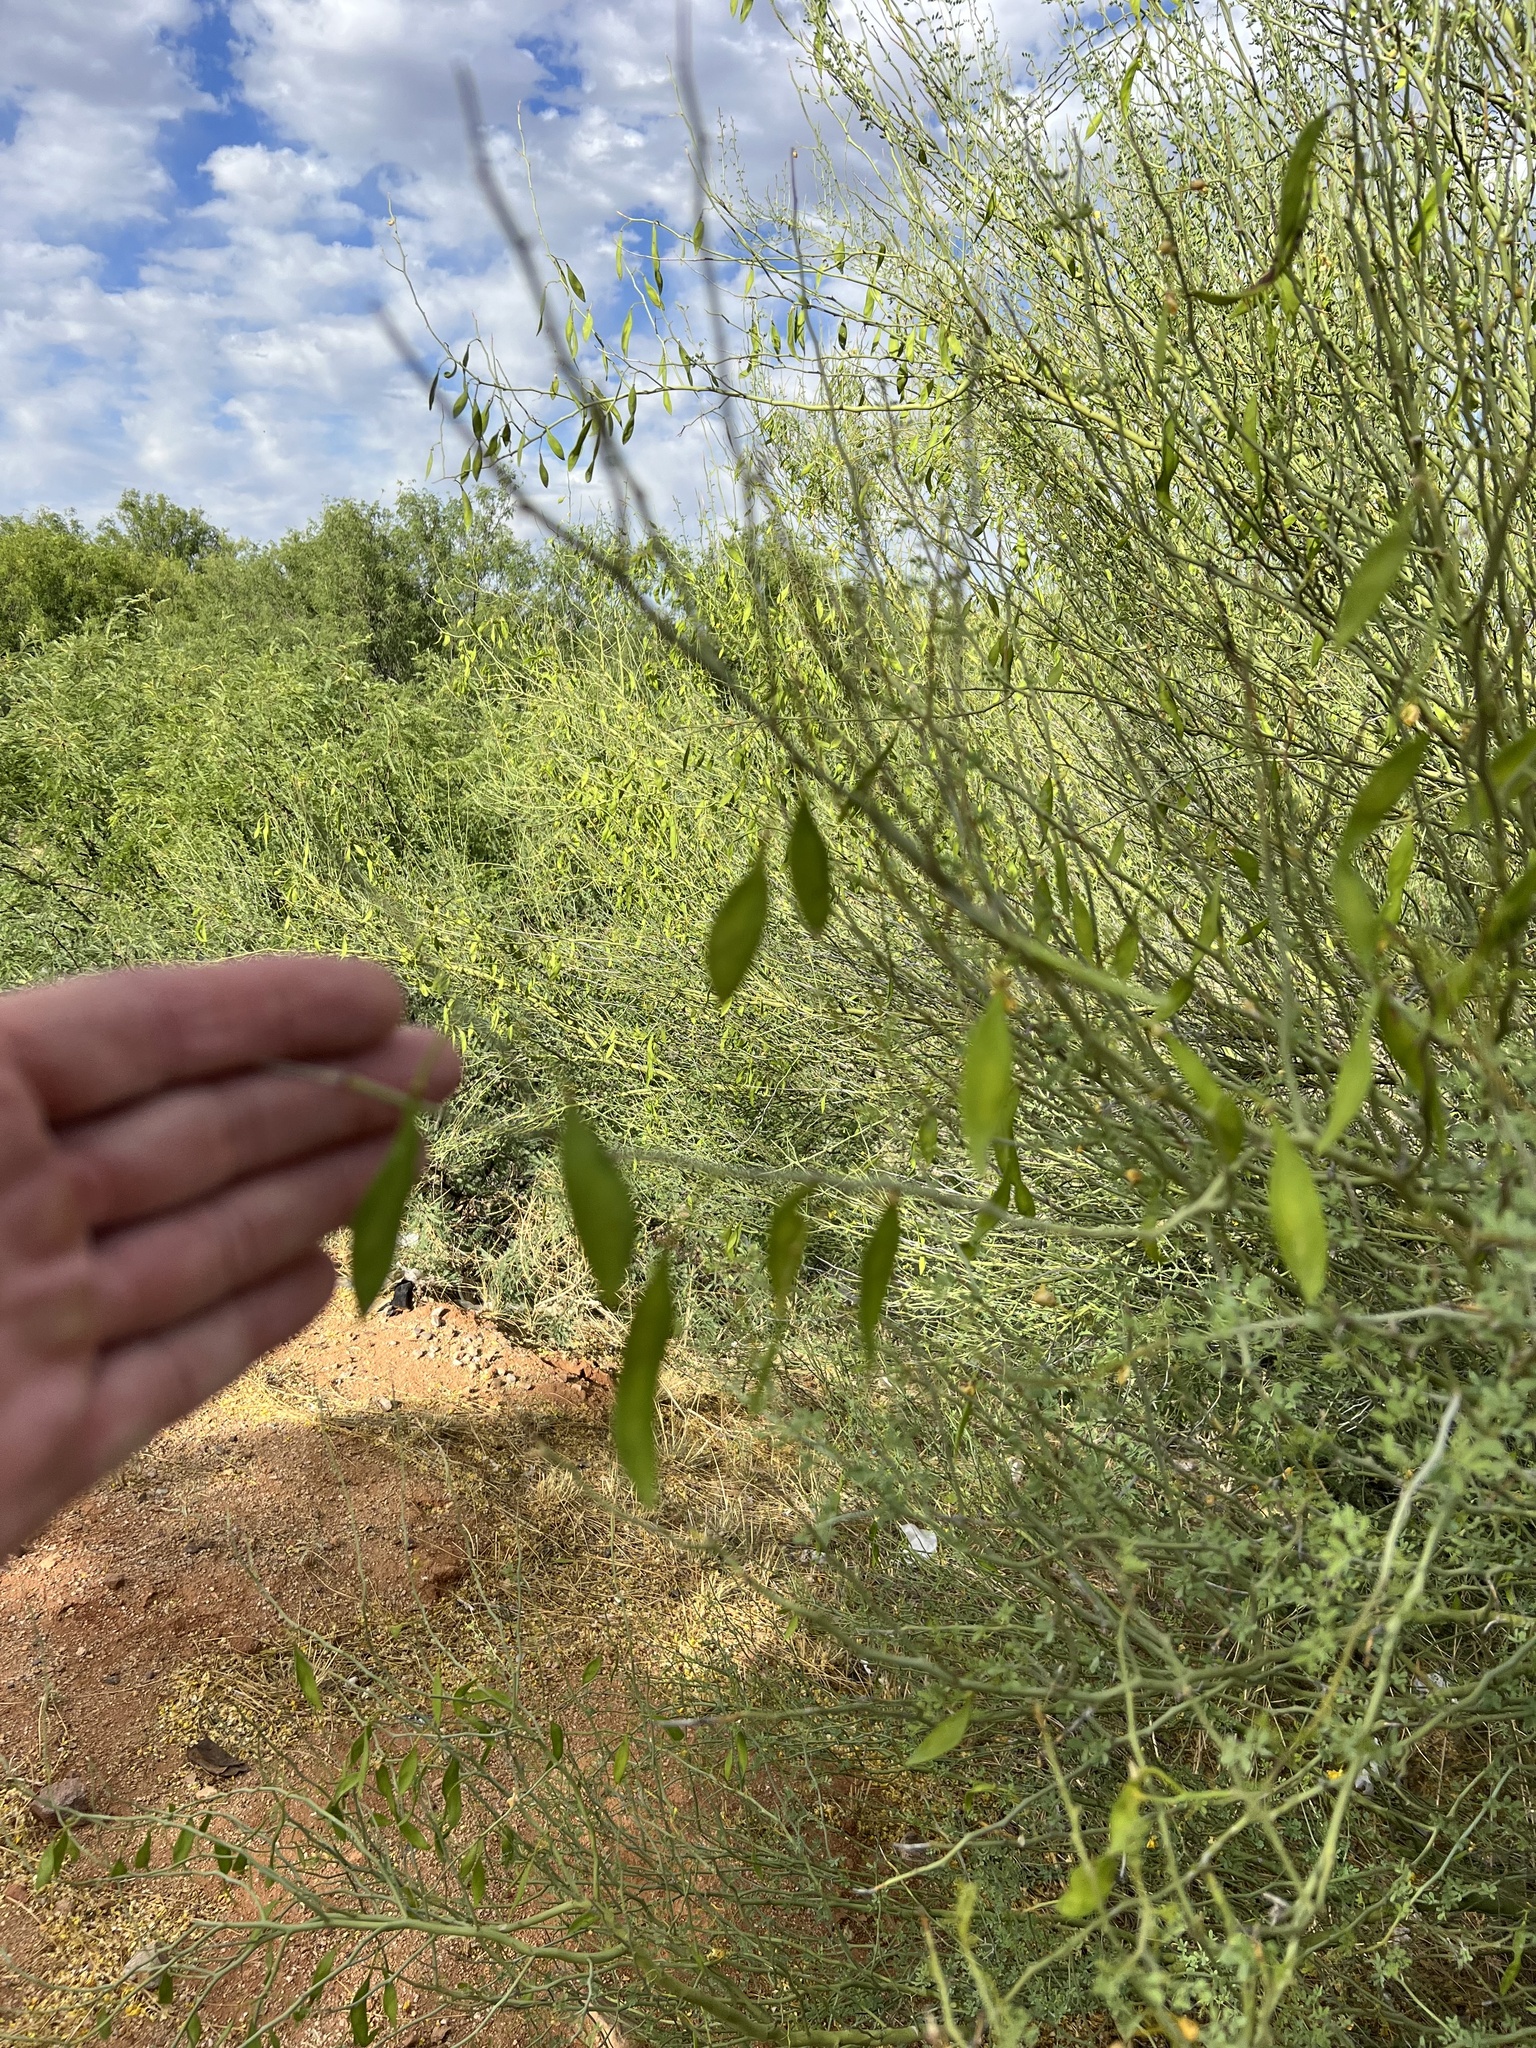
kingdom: Plantae
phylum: Tracheophyta
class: Magnoliopsida
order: Fabales
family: Fabaceae
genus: Parkinsonia
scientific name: Parkinsonia florida
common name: Blue paloverde
